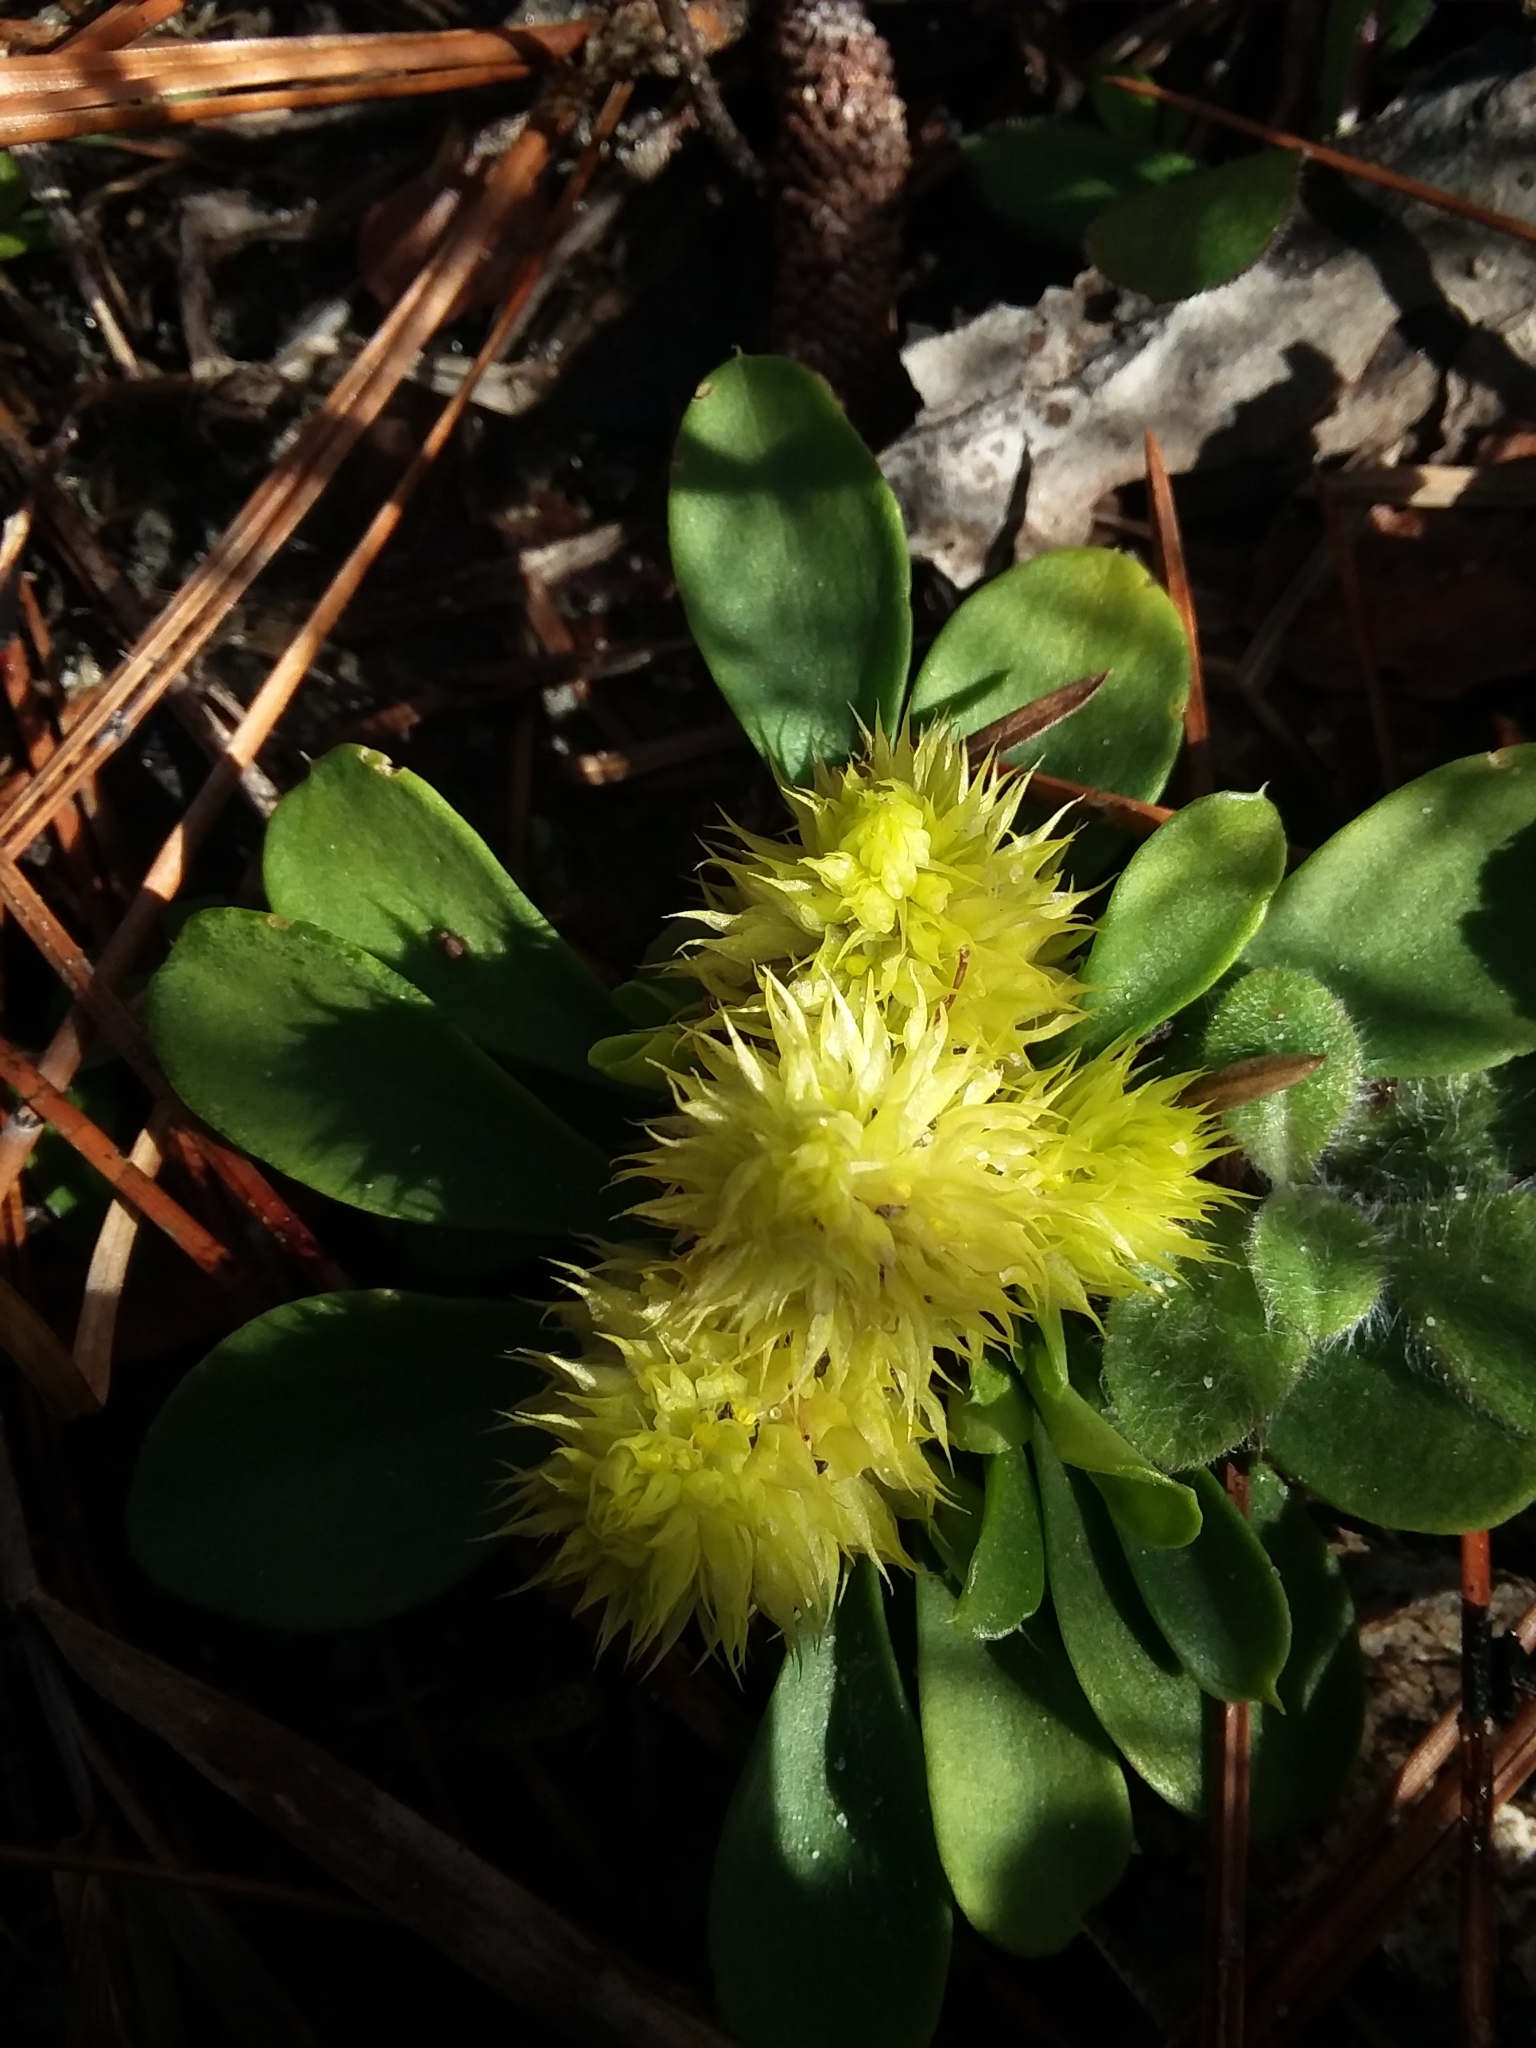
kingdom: Plantae
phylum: Tracheophyta
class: Magnoliopsida
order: Fabales
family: Polygalaceae
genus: Polygala
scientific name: Polygala nana
